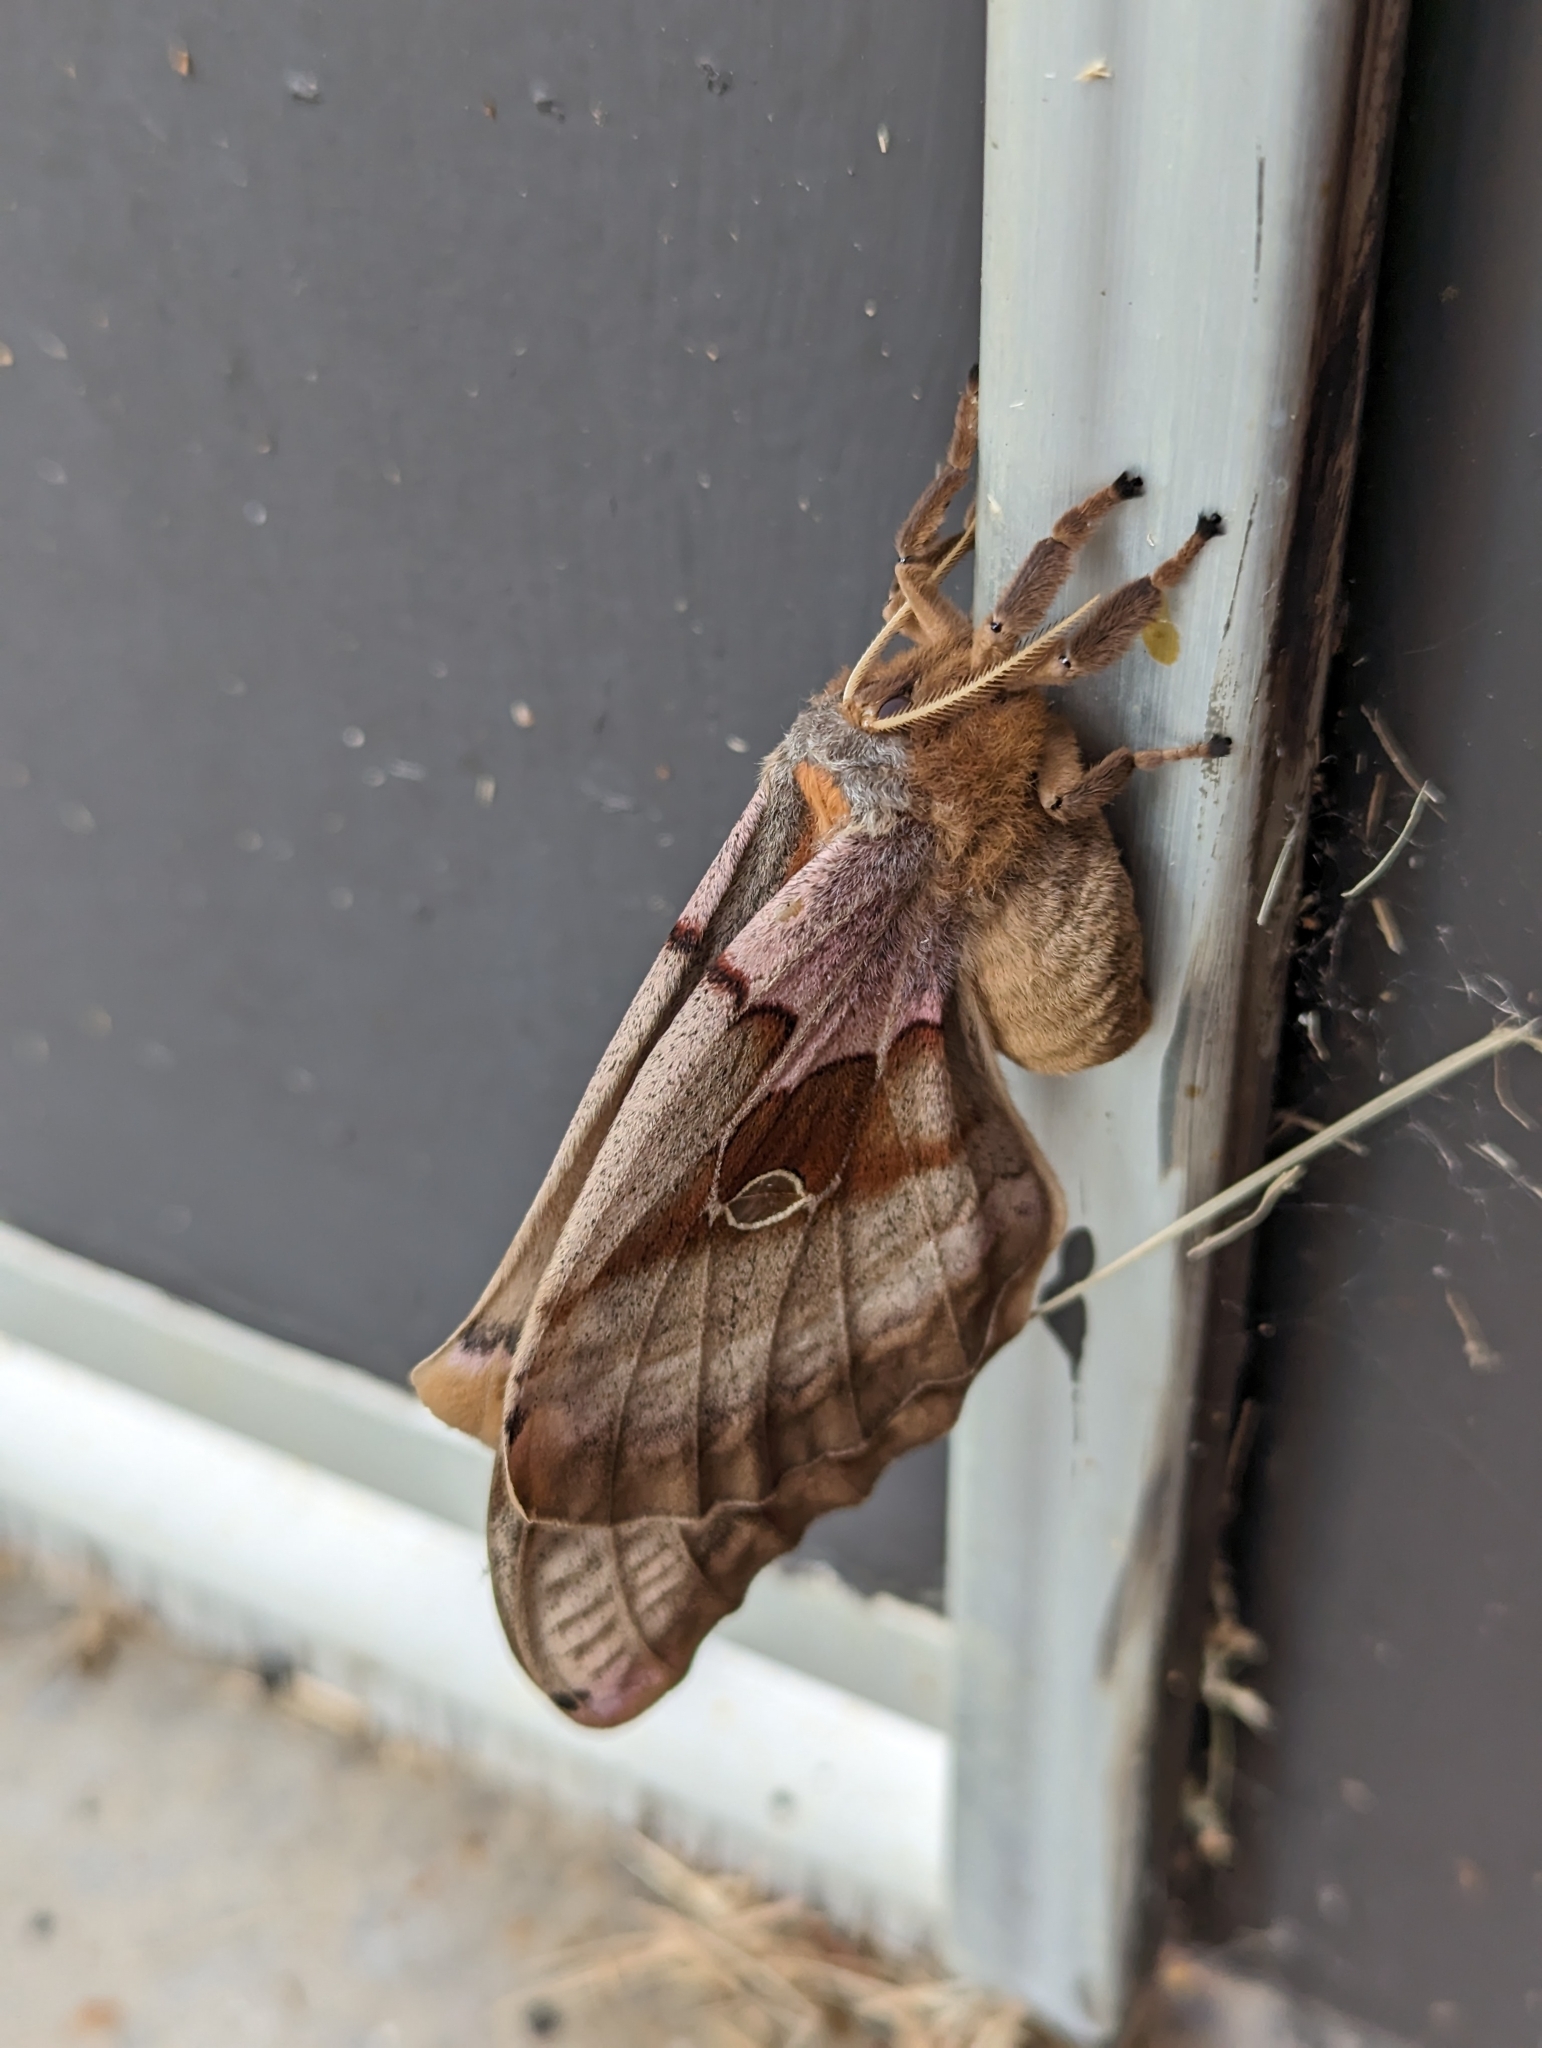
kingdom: Animalia
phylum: Arthropoda
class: Insecta
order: Lepidoptera
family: Saturniidae
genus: Antheraea
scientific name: Antheraea polyphemus
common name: Polyphemus moth
